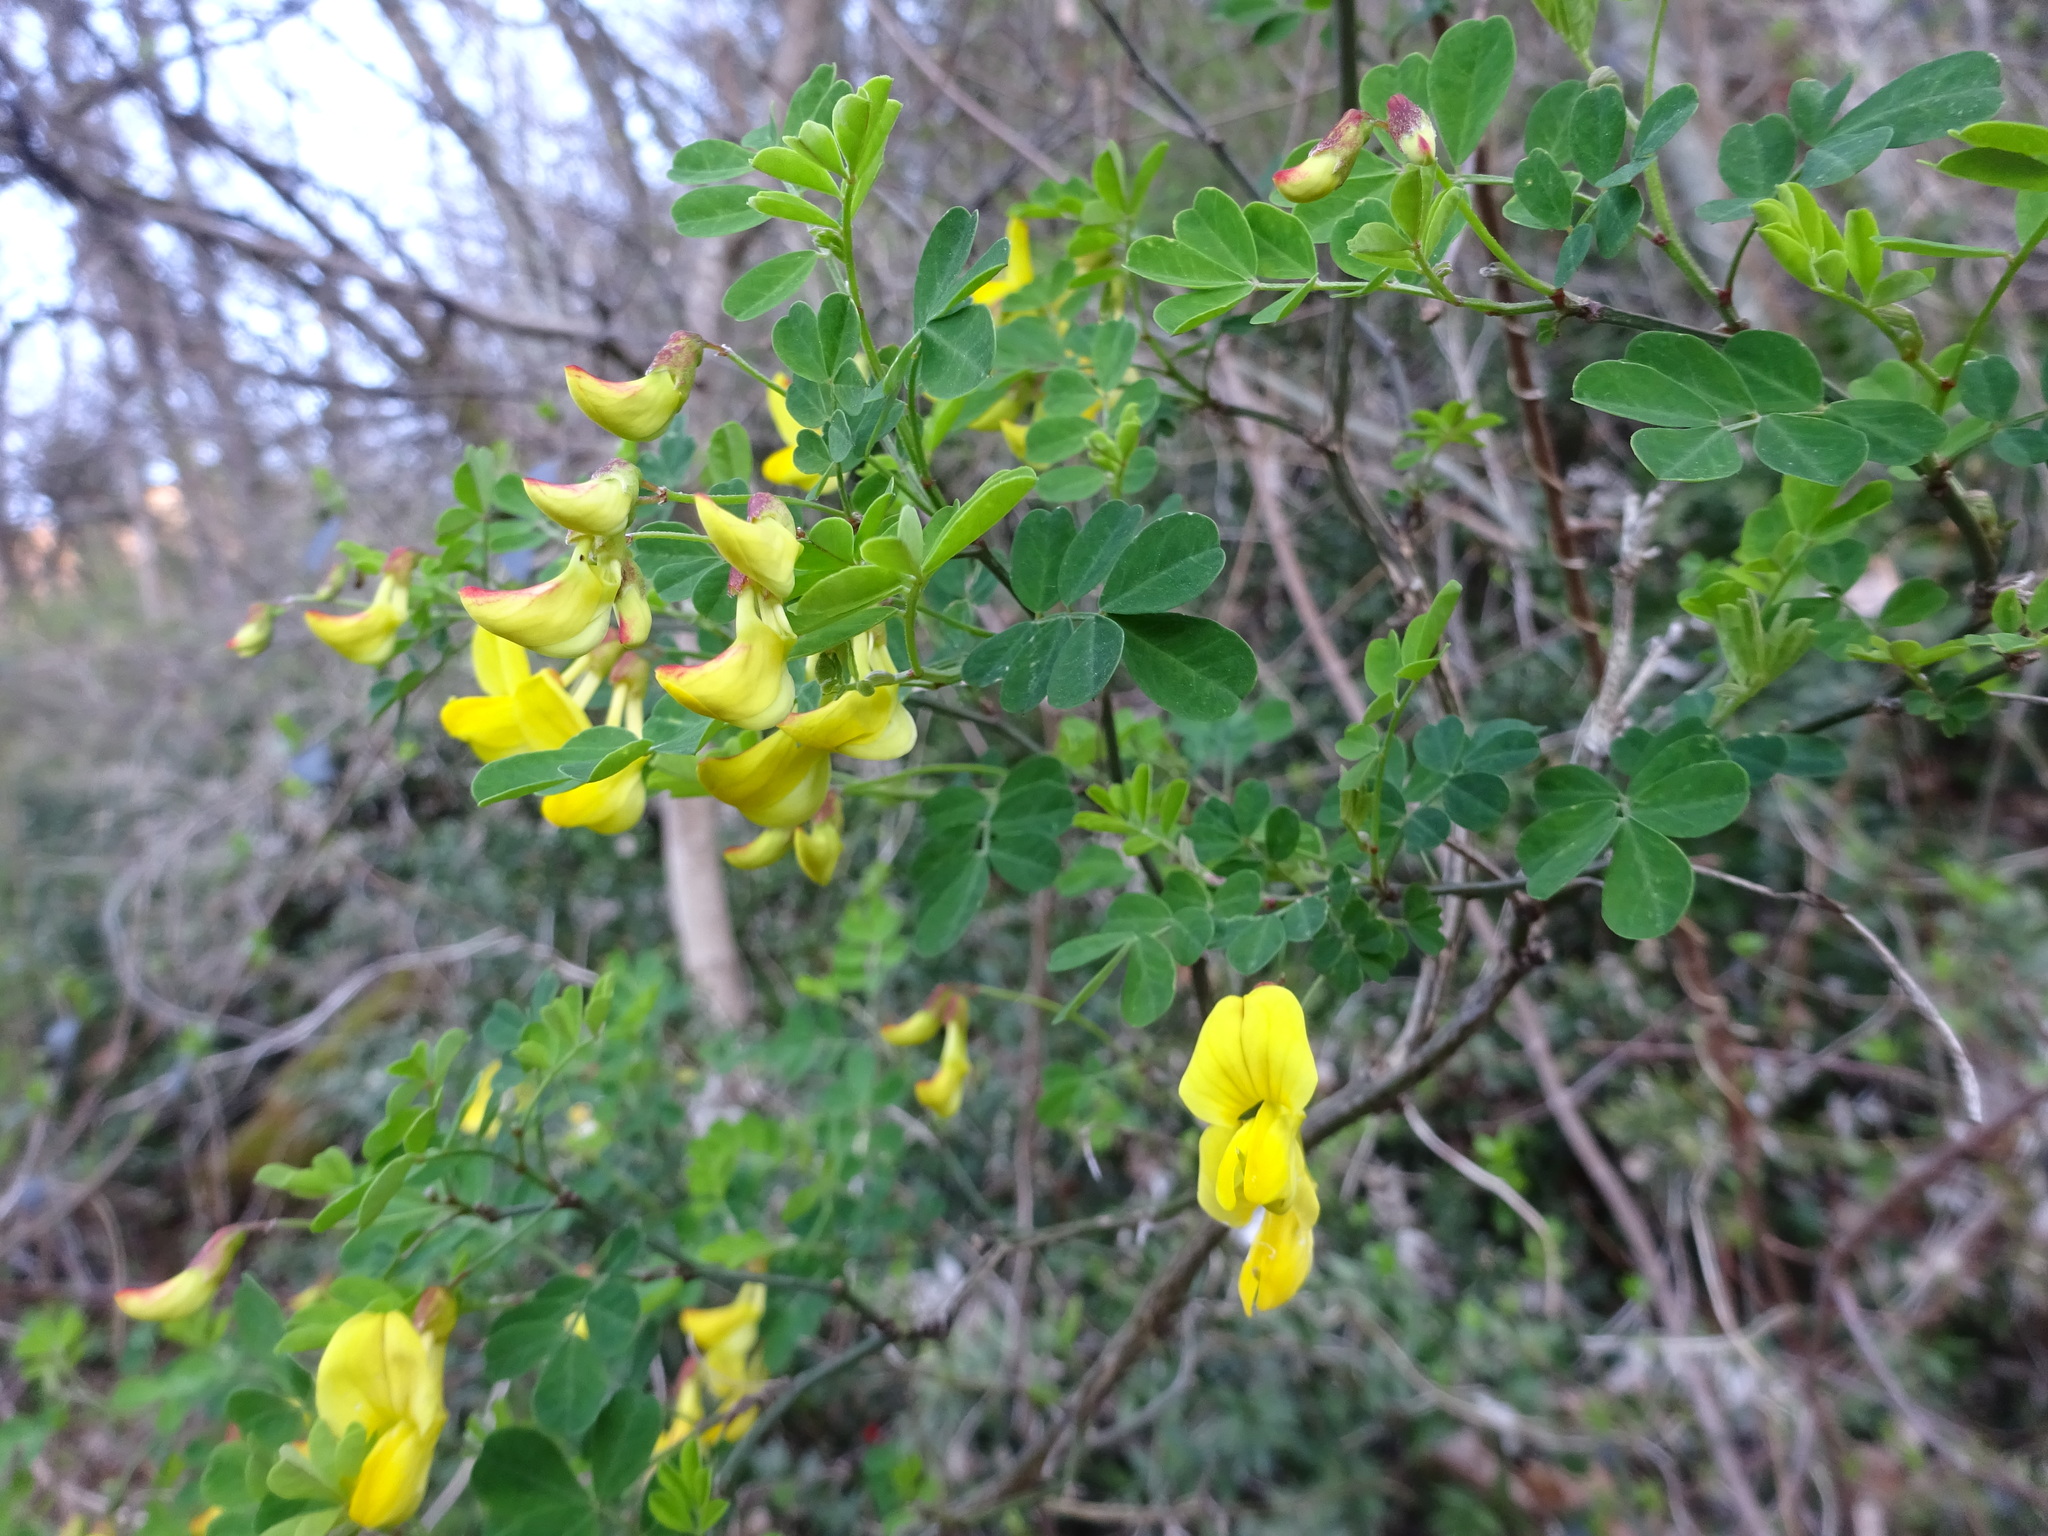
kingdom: Plantae
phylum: Tracheophyta
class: Magnoliopsida
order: Fabales
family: Fabaceae
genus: Hippocrepis
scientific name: Hippocrepis emerus
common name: Scorpion senna
